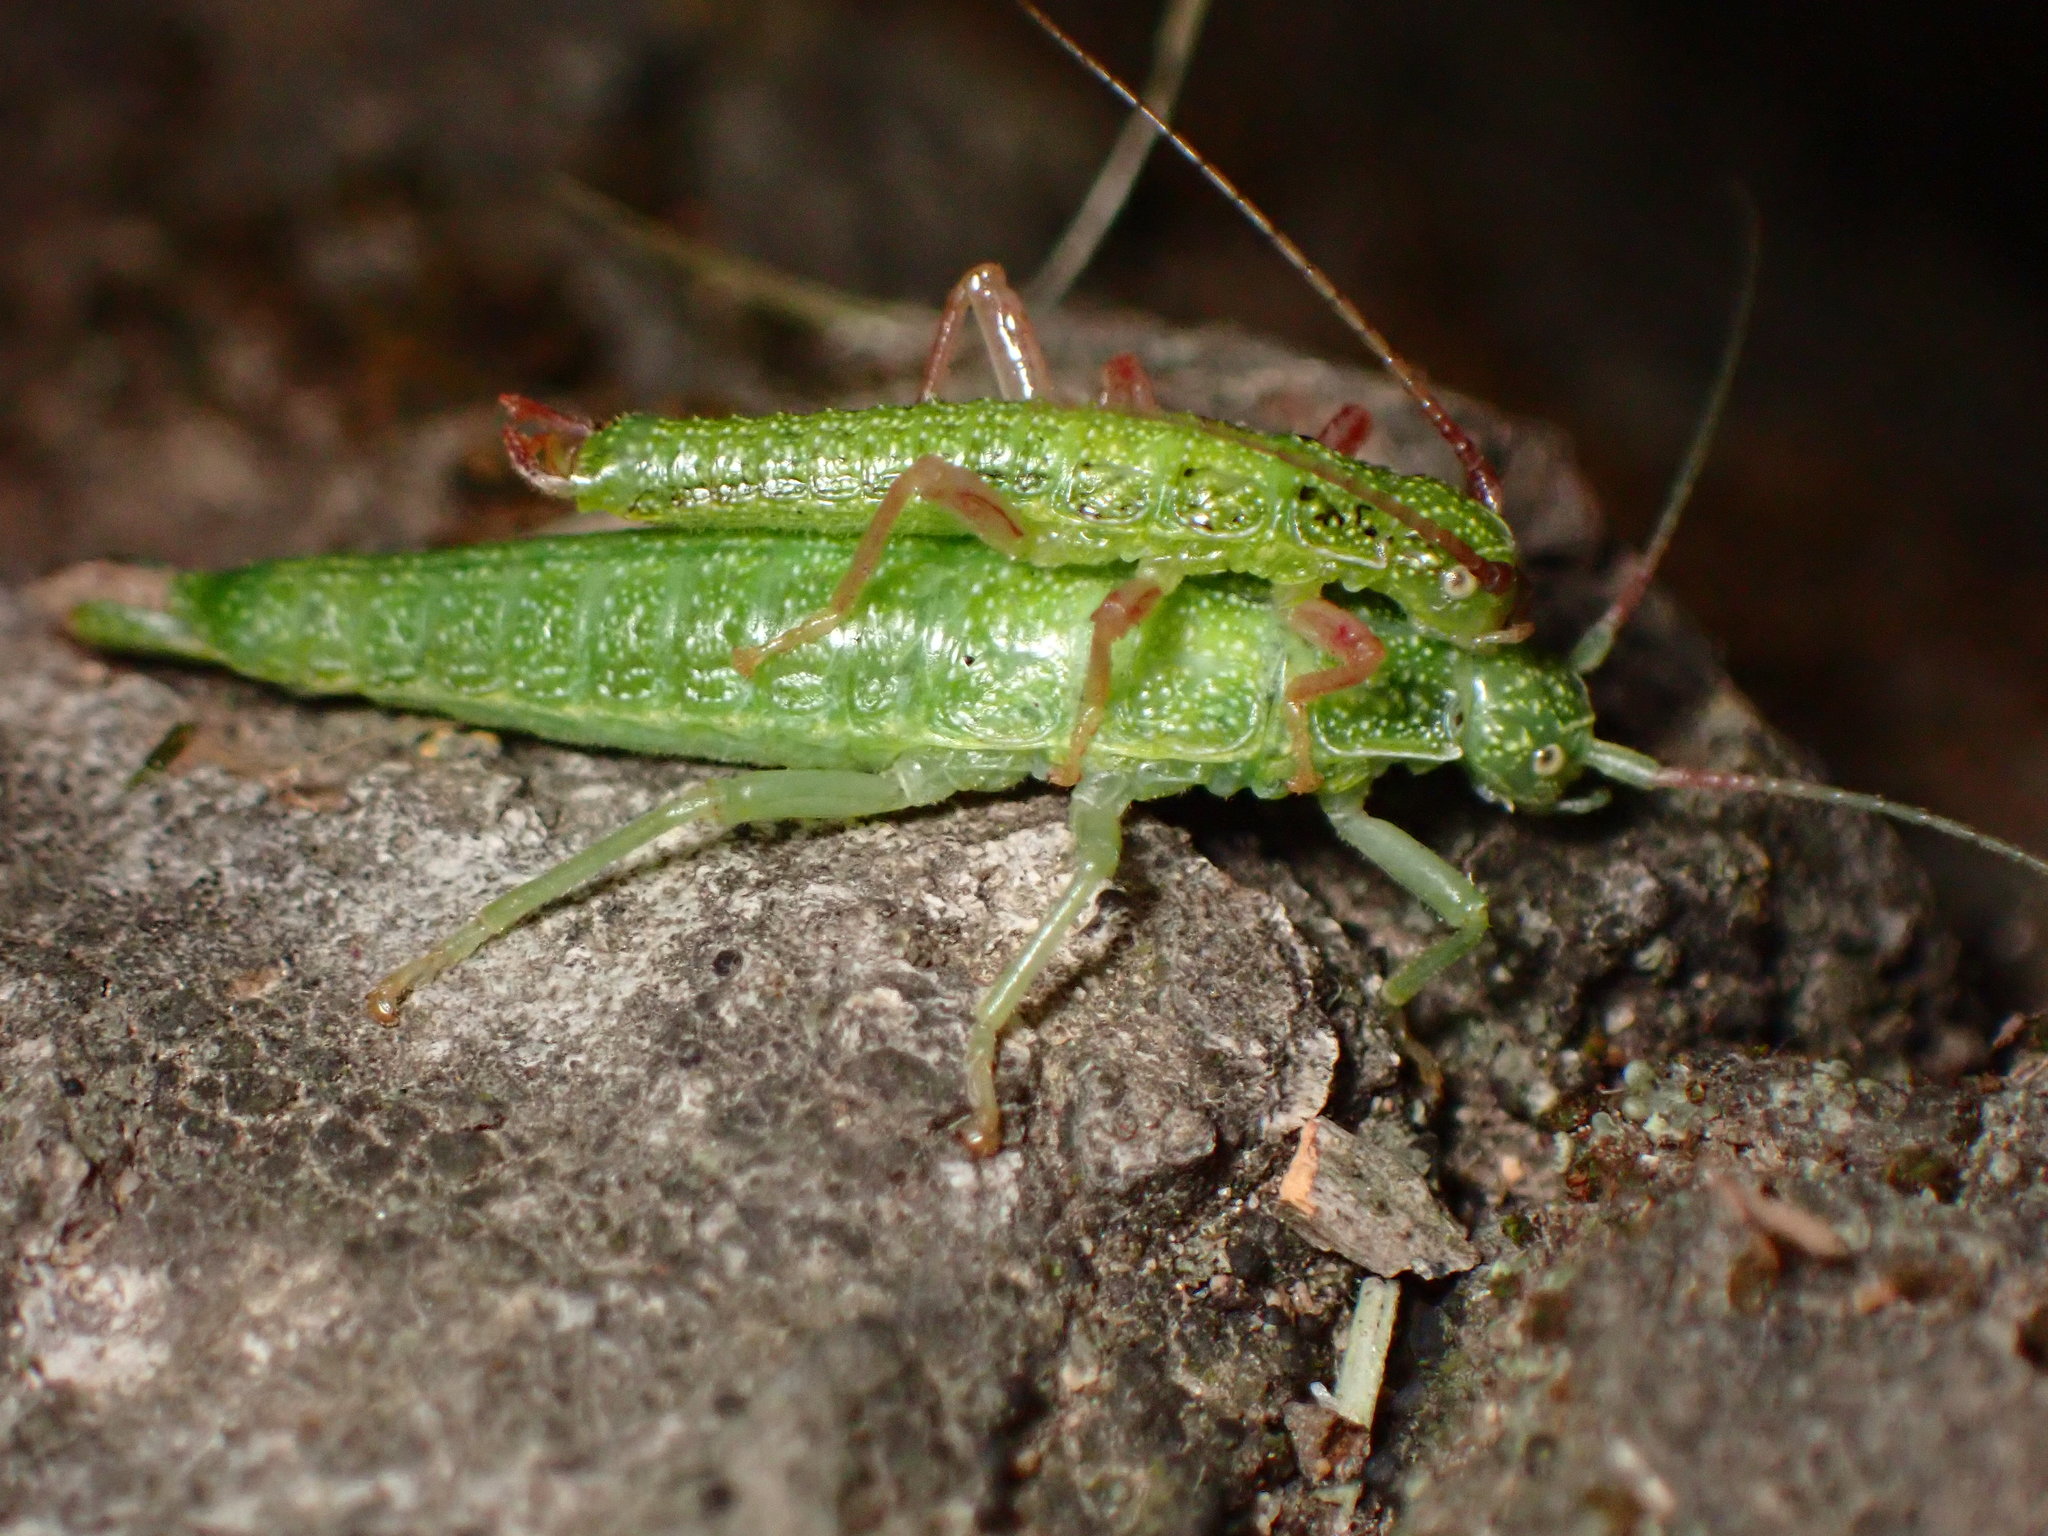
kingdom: Animalia
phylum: Arthropoda
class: Insecta
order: Phasmida
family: Timematidae
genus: Timema
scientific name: Timema californicum
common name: California timema
